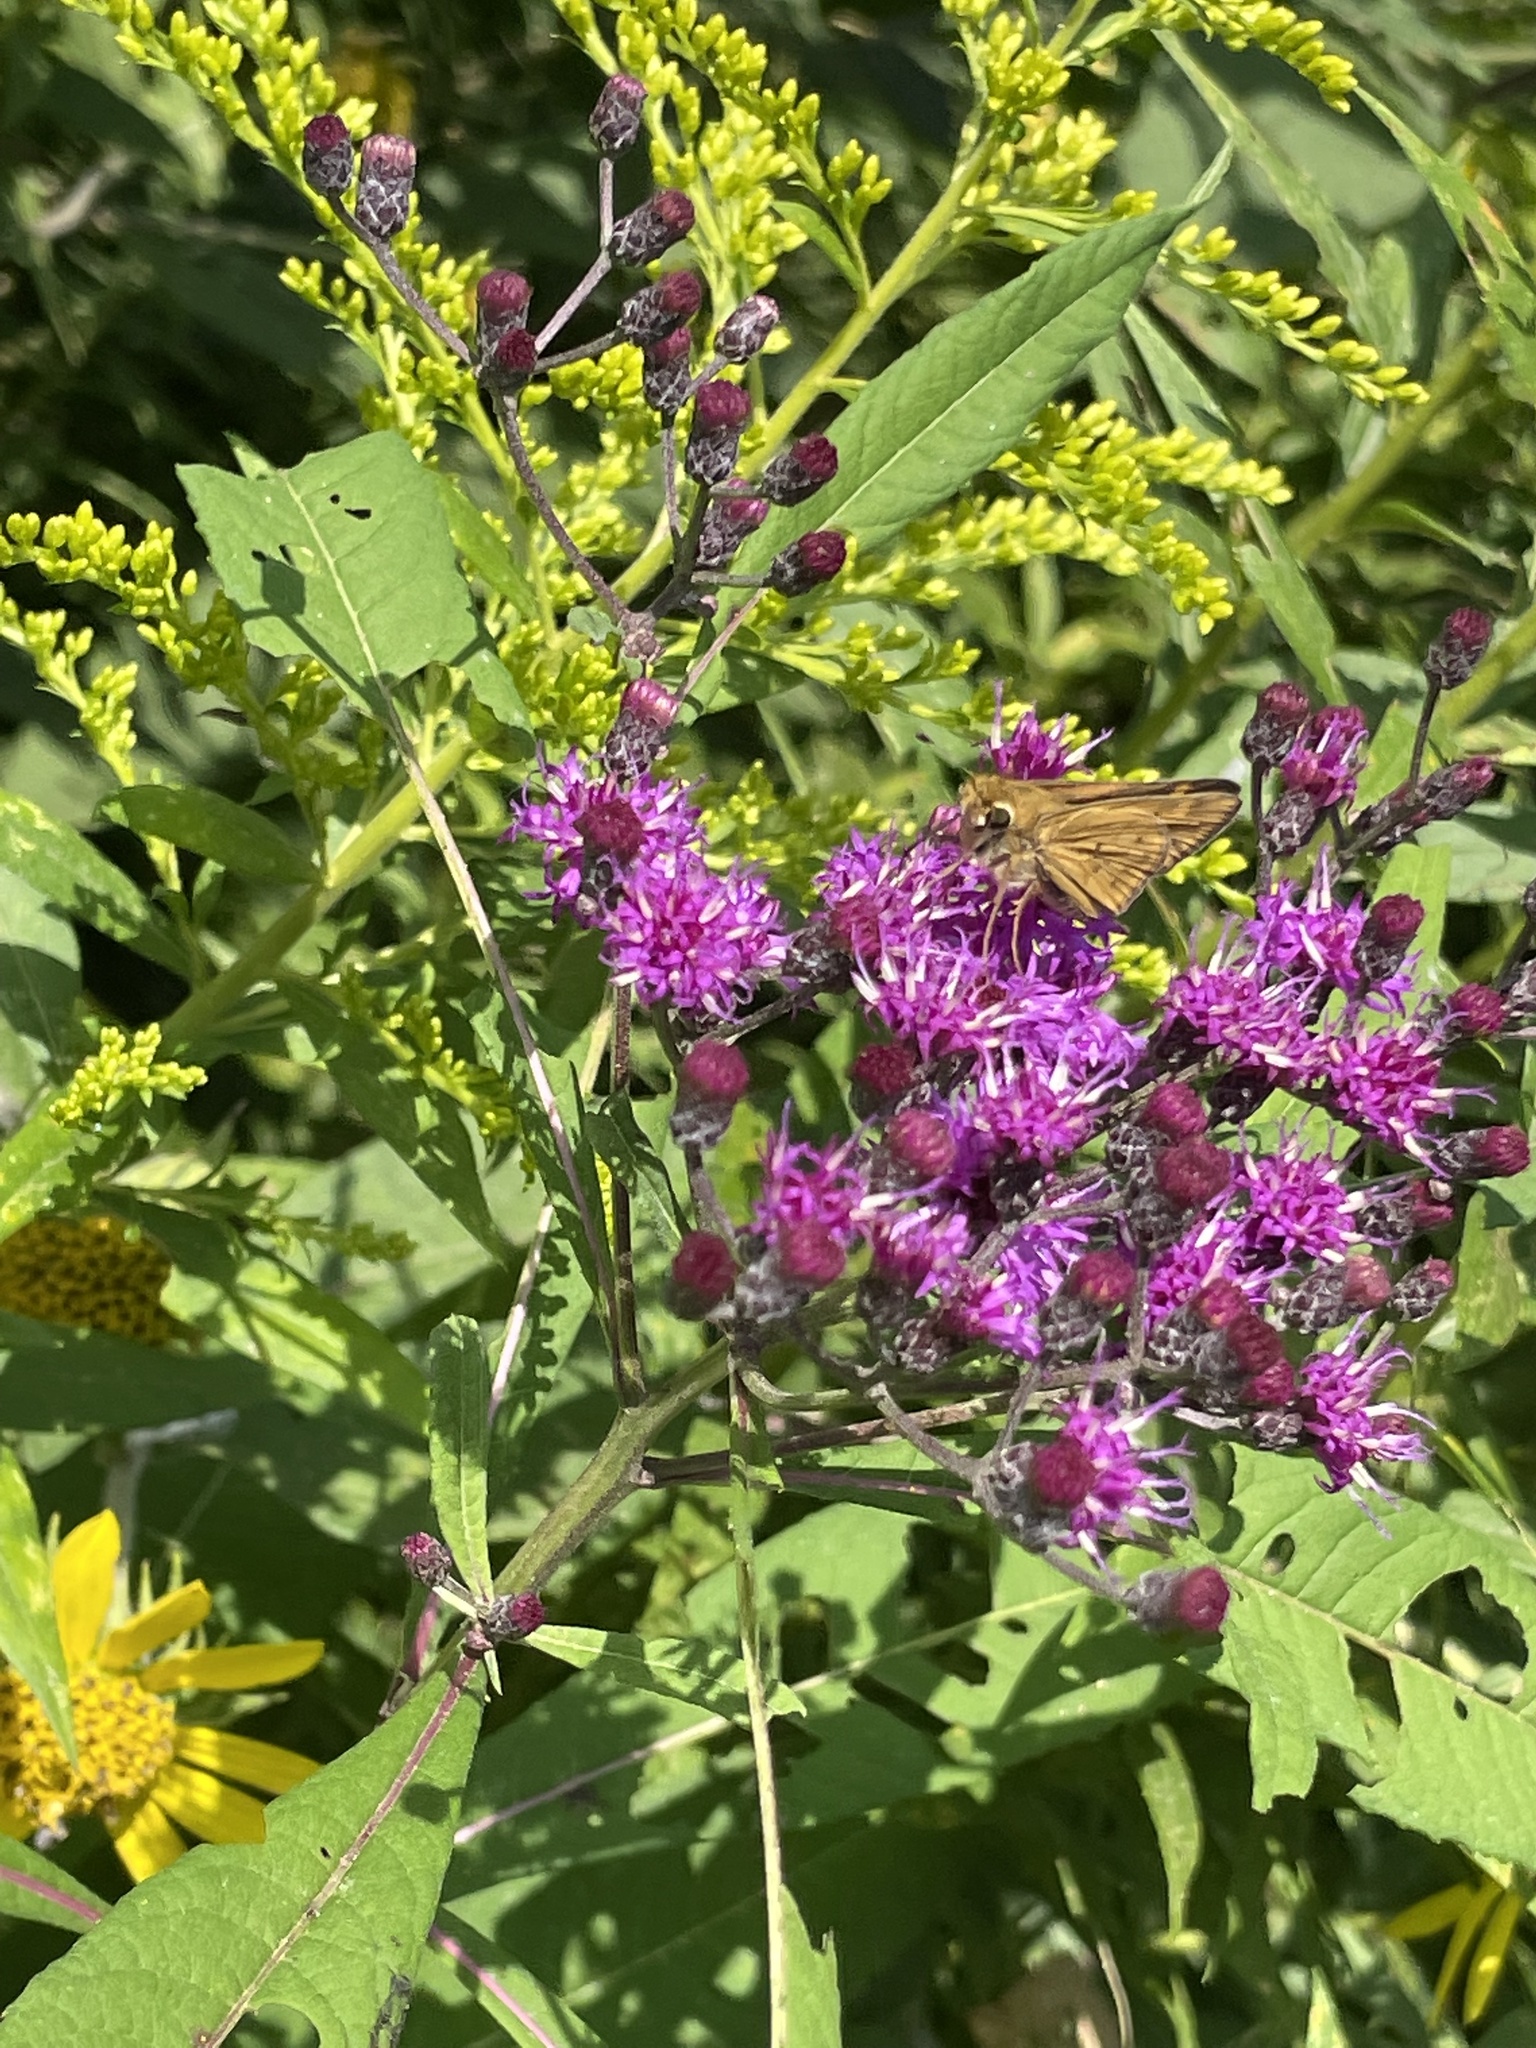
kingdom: Animalia
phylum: Arthropoda
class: Insecta
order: Lepidoptera
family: Hesperiidae
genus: Hylephila
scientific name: Hylephila phyleus
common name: Fiery skipper
